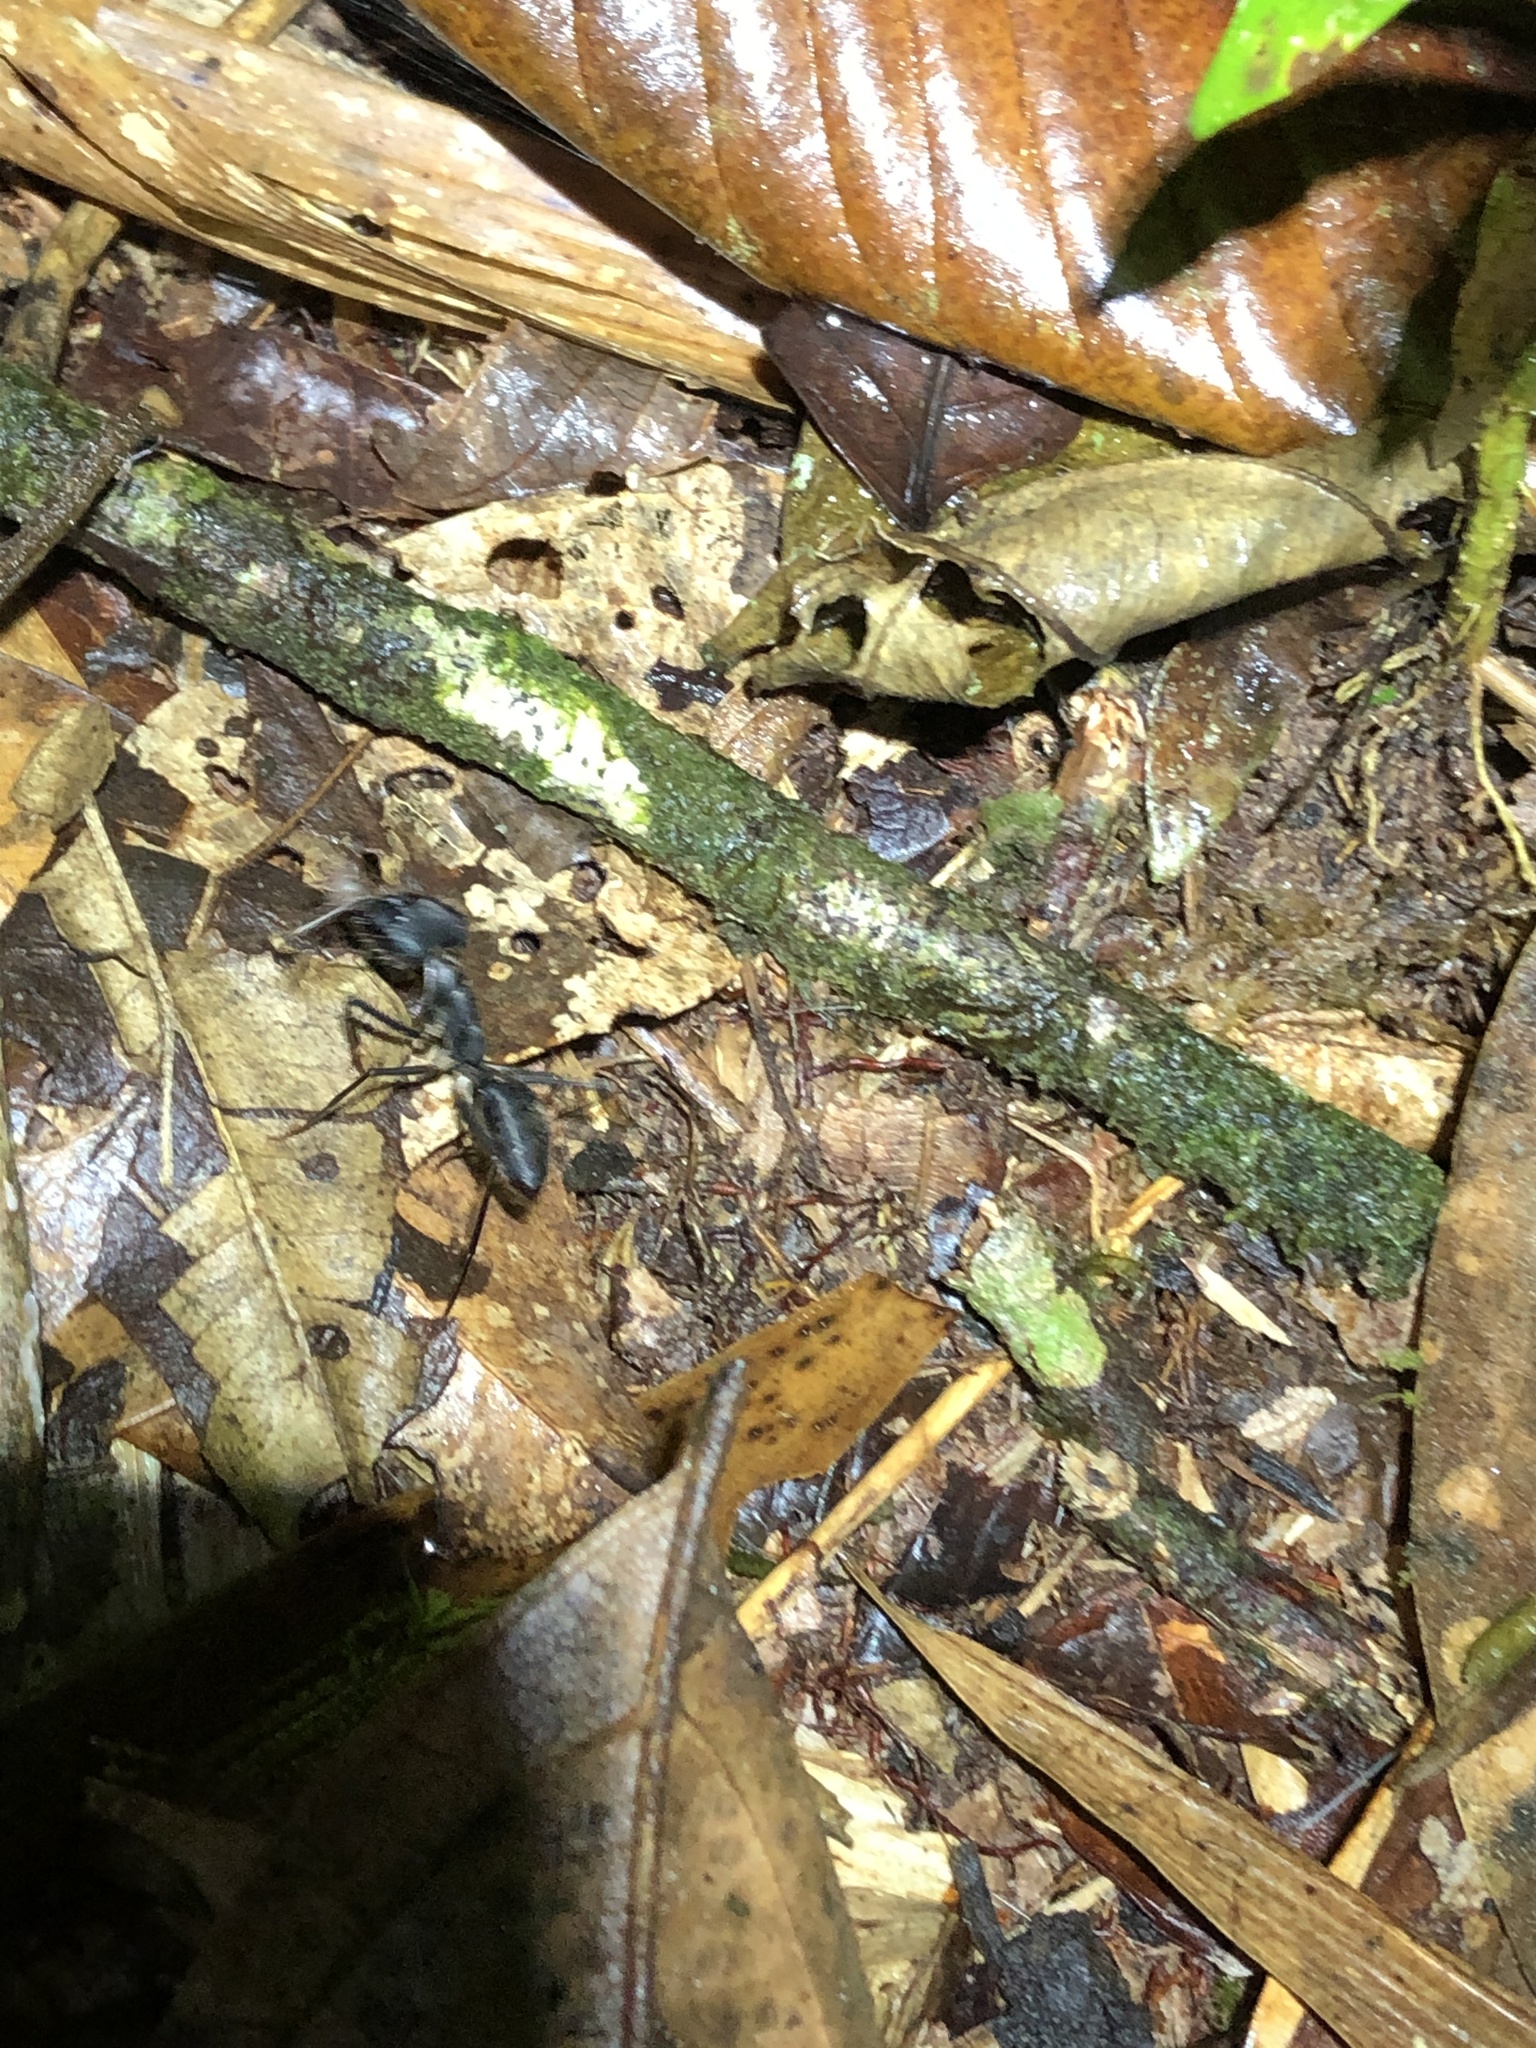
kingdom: Animalia
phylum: Arthropoda
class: Insecta
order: Hymenoptera
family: Formicidae
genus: Camponotus
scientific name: Camponotus cacicus
